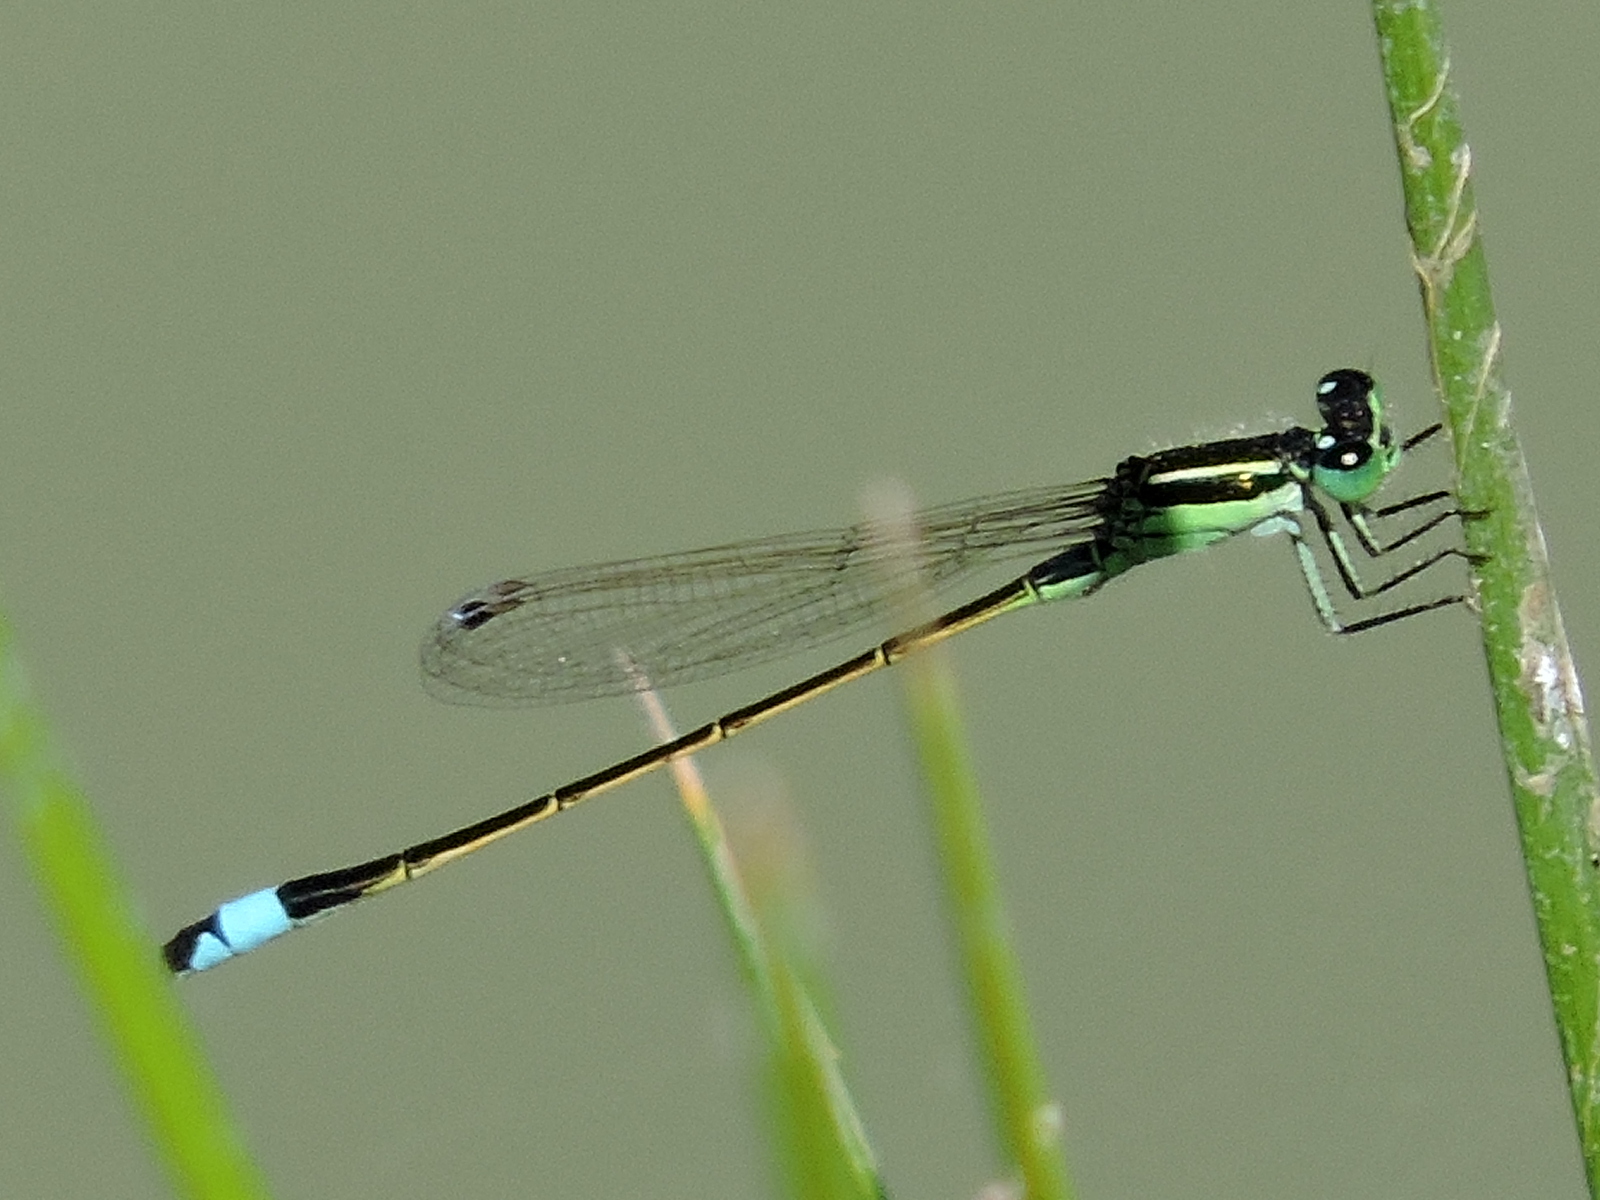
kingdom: Animalia
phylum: Arthropoda
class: Insecta
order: Odonata
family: Coenagrionidae
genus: Ischnura
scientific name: Ischnura ramburii
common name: Rambur's forktail
